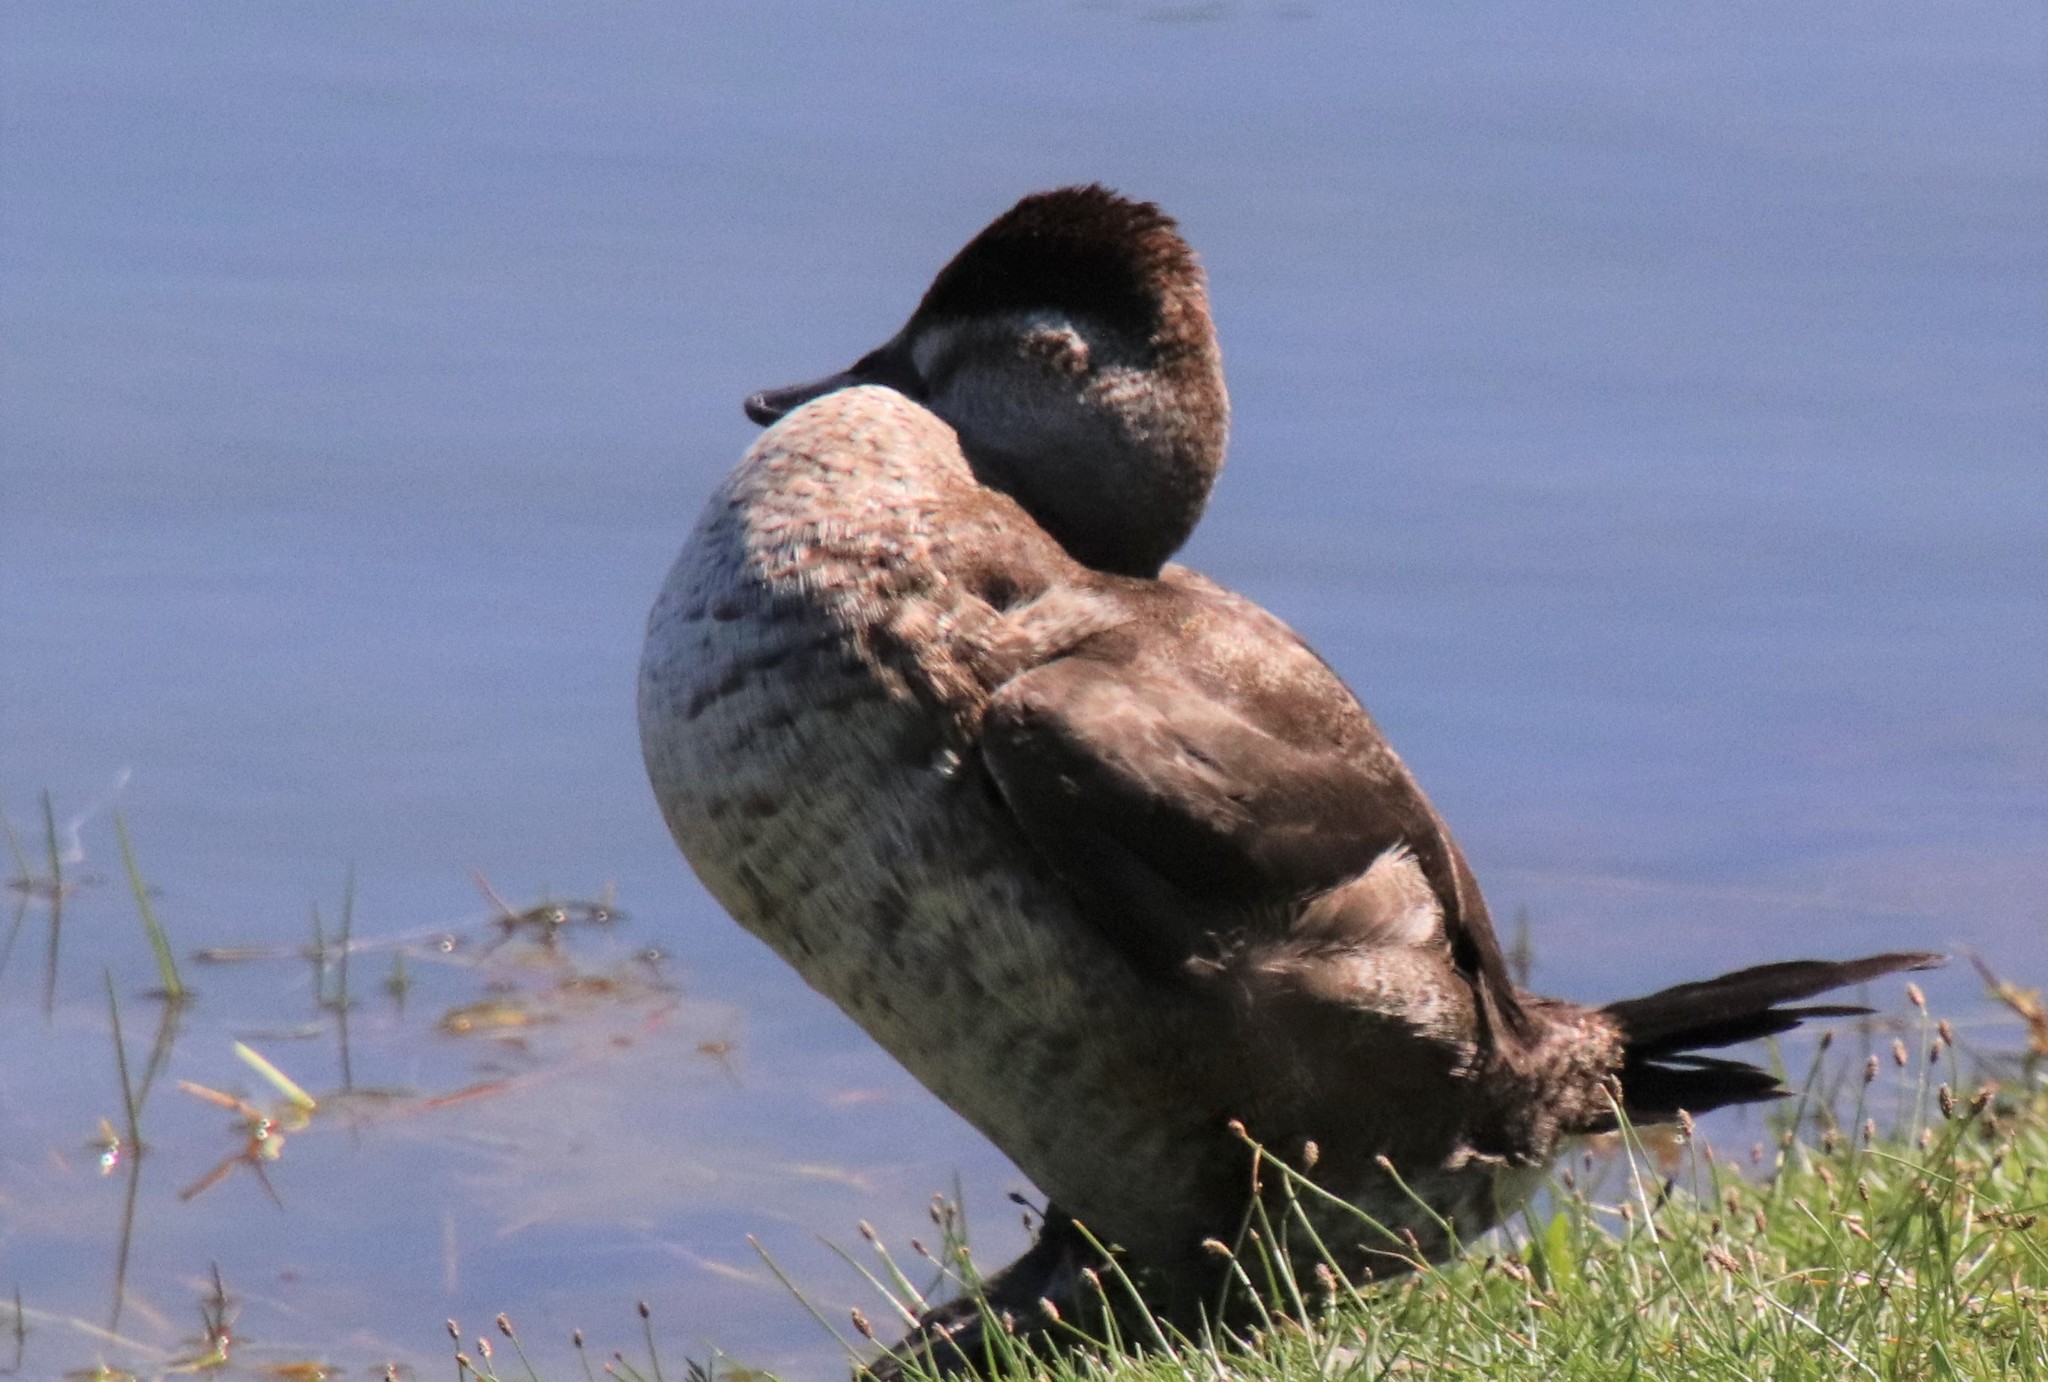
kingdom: Animalia
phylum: Chordata
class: Aves
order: Anseriformes
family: Anatidae
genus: Oxyura
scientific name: Oxyura jamaicensis
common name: Ruddy duck
